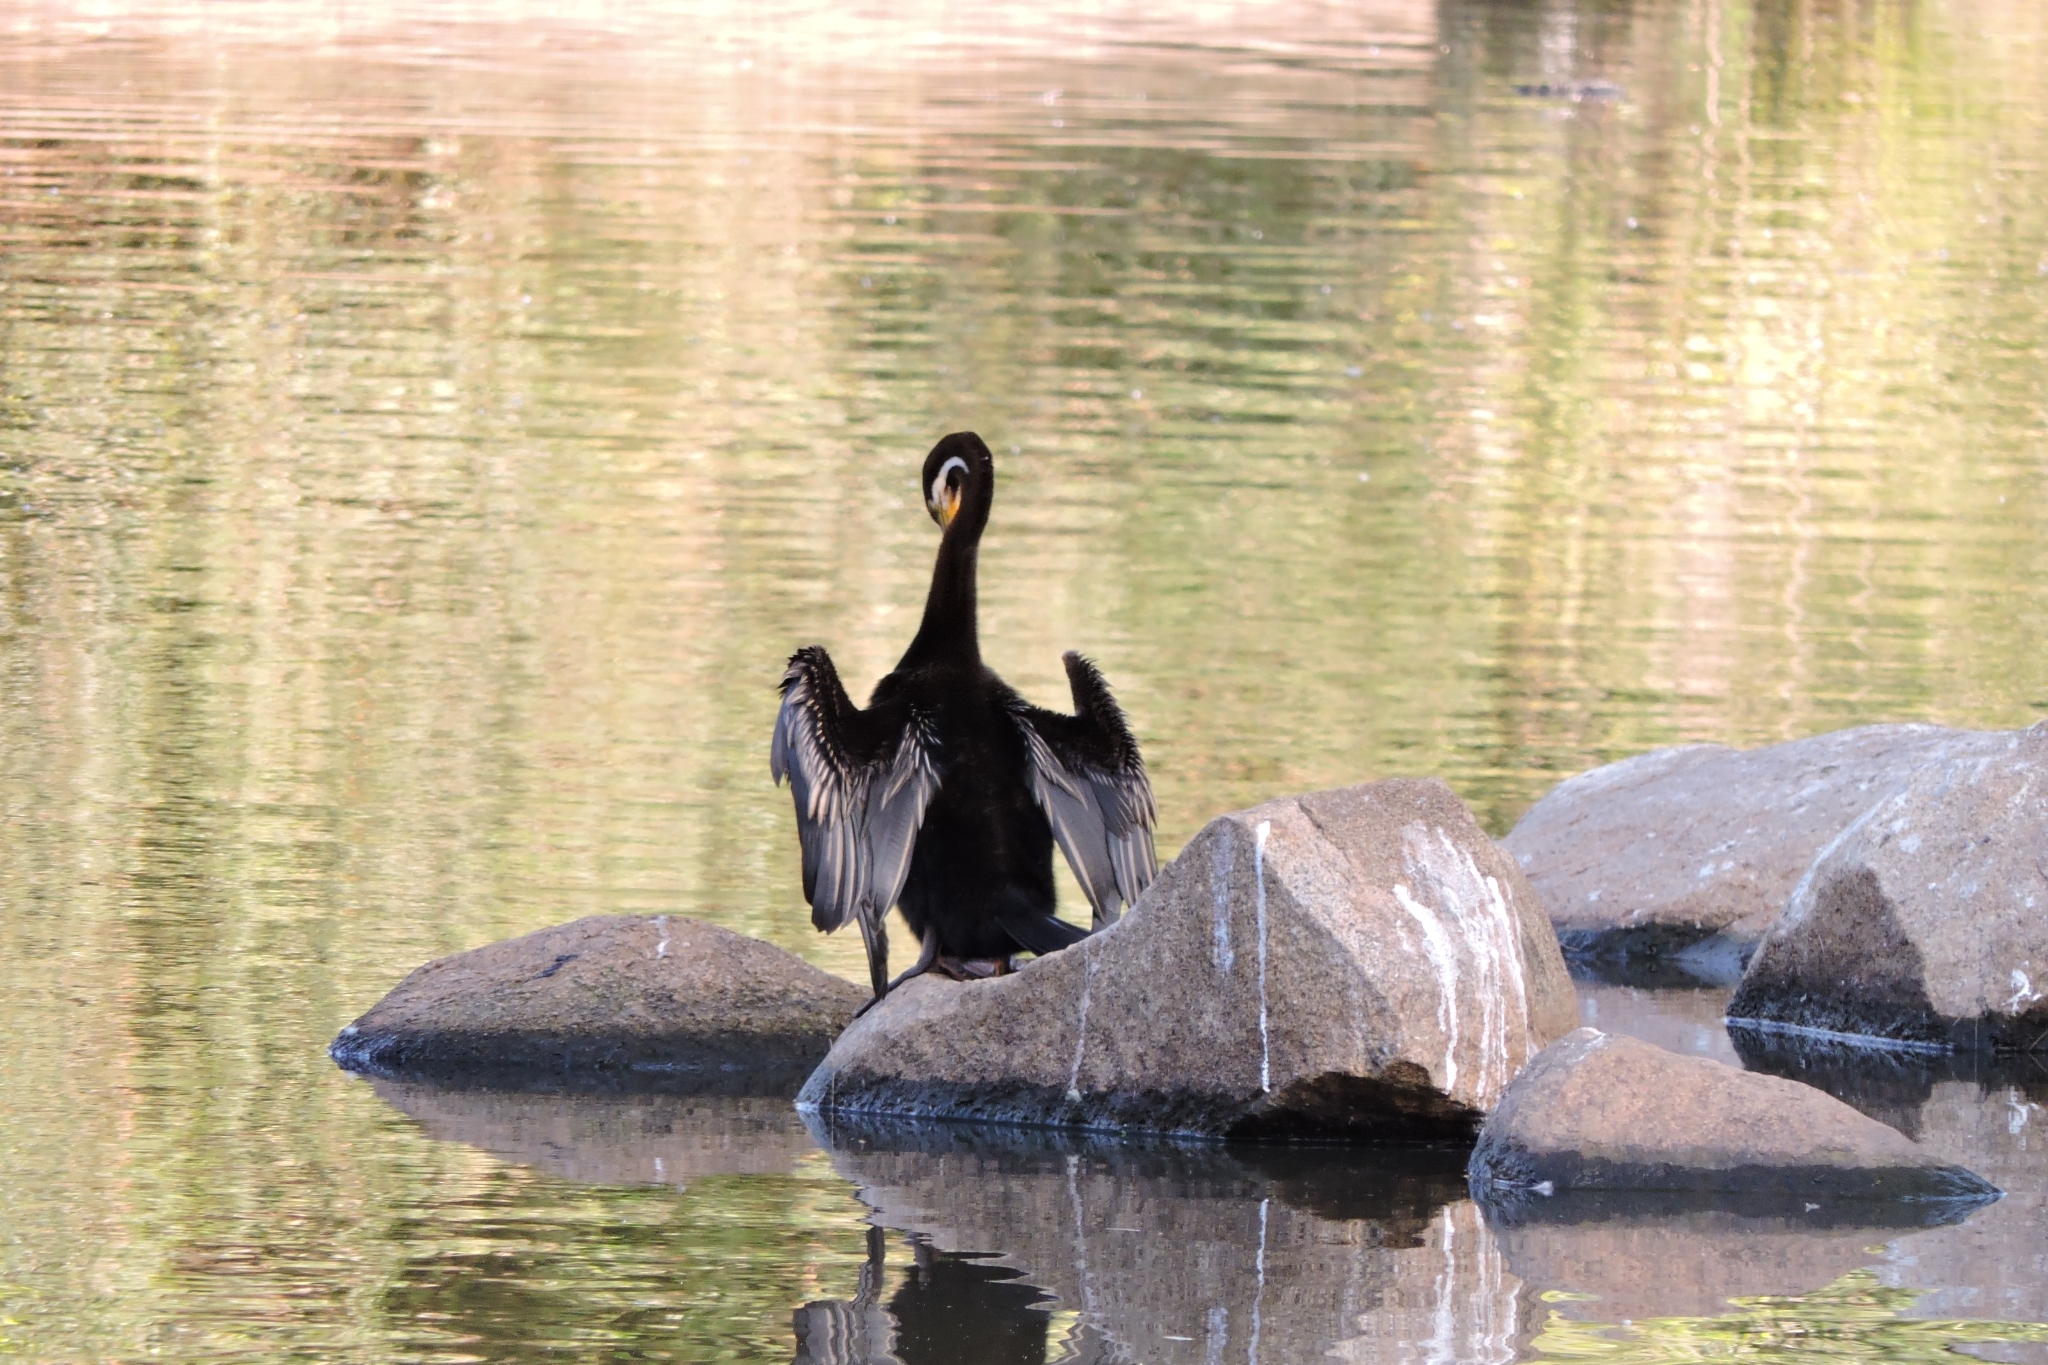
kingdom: Animalia
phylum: Chordata
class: Aves
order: Suliformes
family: Anhingidae
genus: Anhinga
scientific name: Anhinga novaehollandiae
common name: Australasian darter
